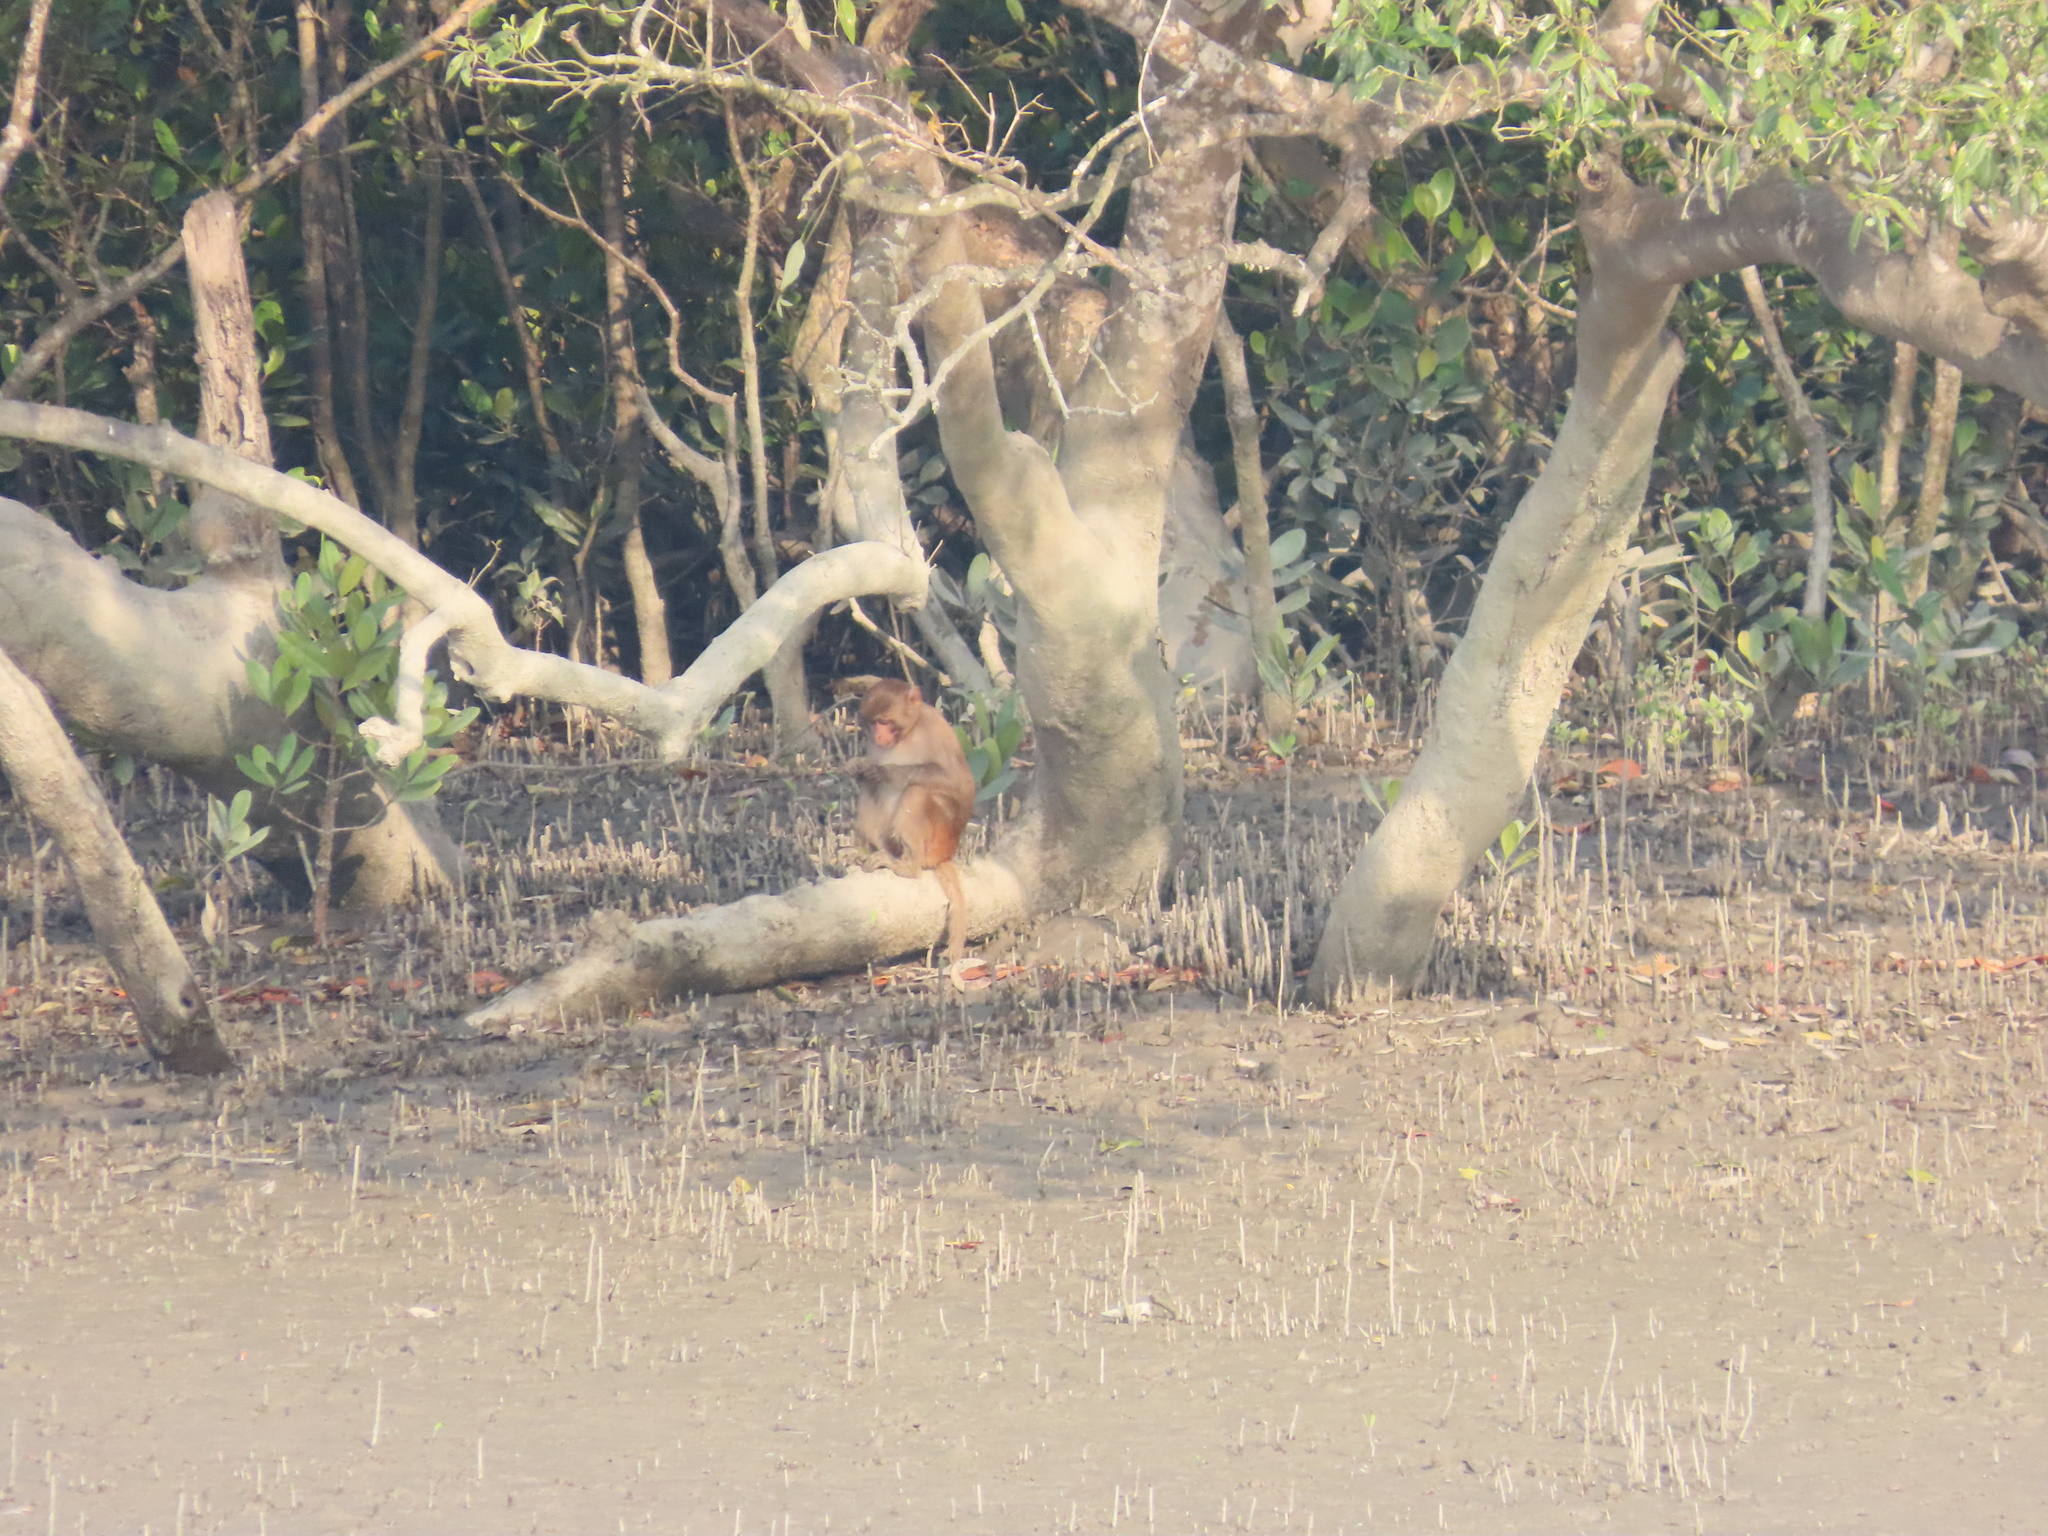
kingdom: Animalia
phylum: Chordata
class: Mammalia
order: Primates
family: Cercopithecidae
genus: Macaca
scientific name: Macaca mulatta
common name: Rhesus monkey
